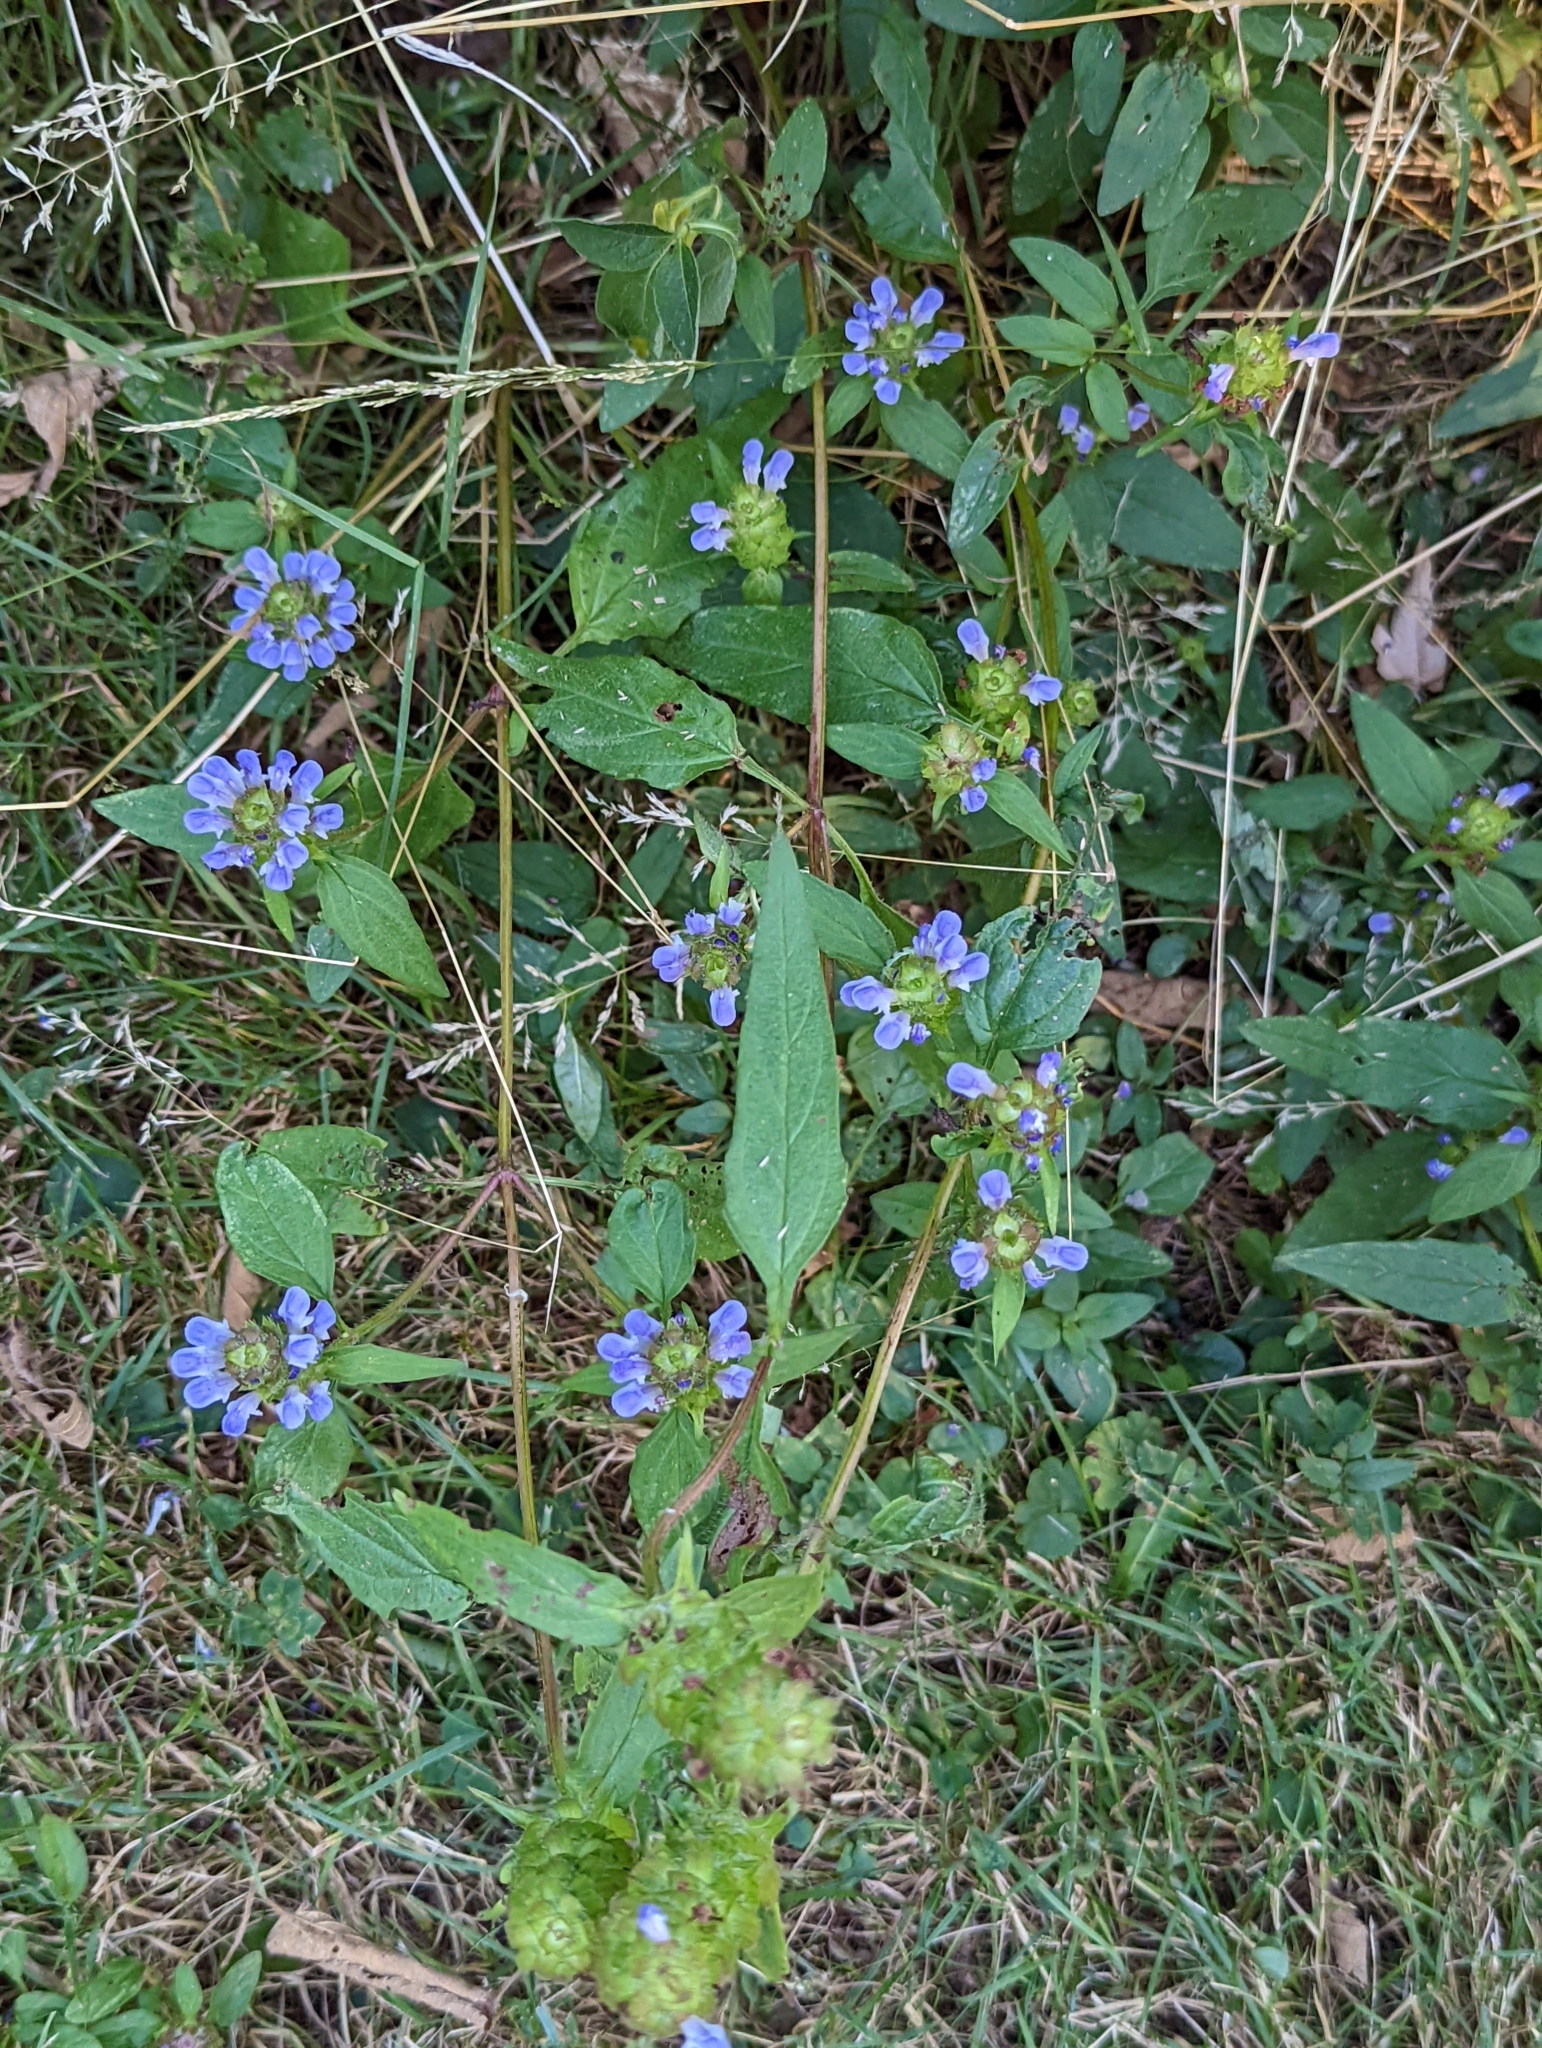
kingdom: Plantae
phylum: Tracheophyta
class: Magnoliopsida
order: Lamiales
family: Lamiaceae
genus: Prunella
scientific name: Prunella vulgaris
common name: Heal-all
